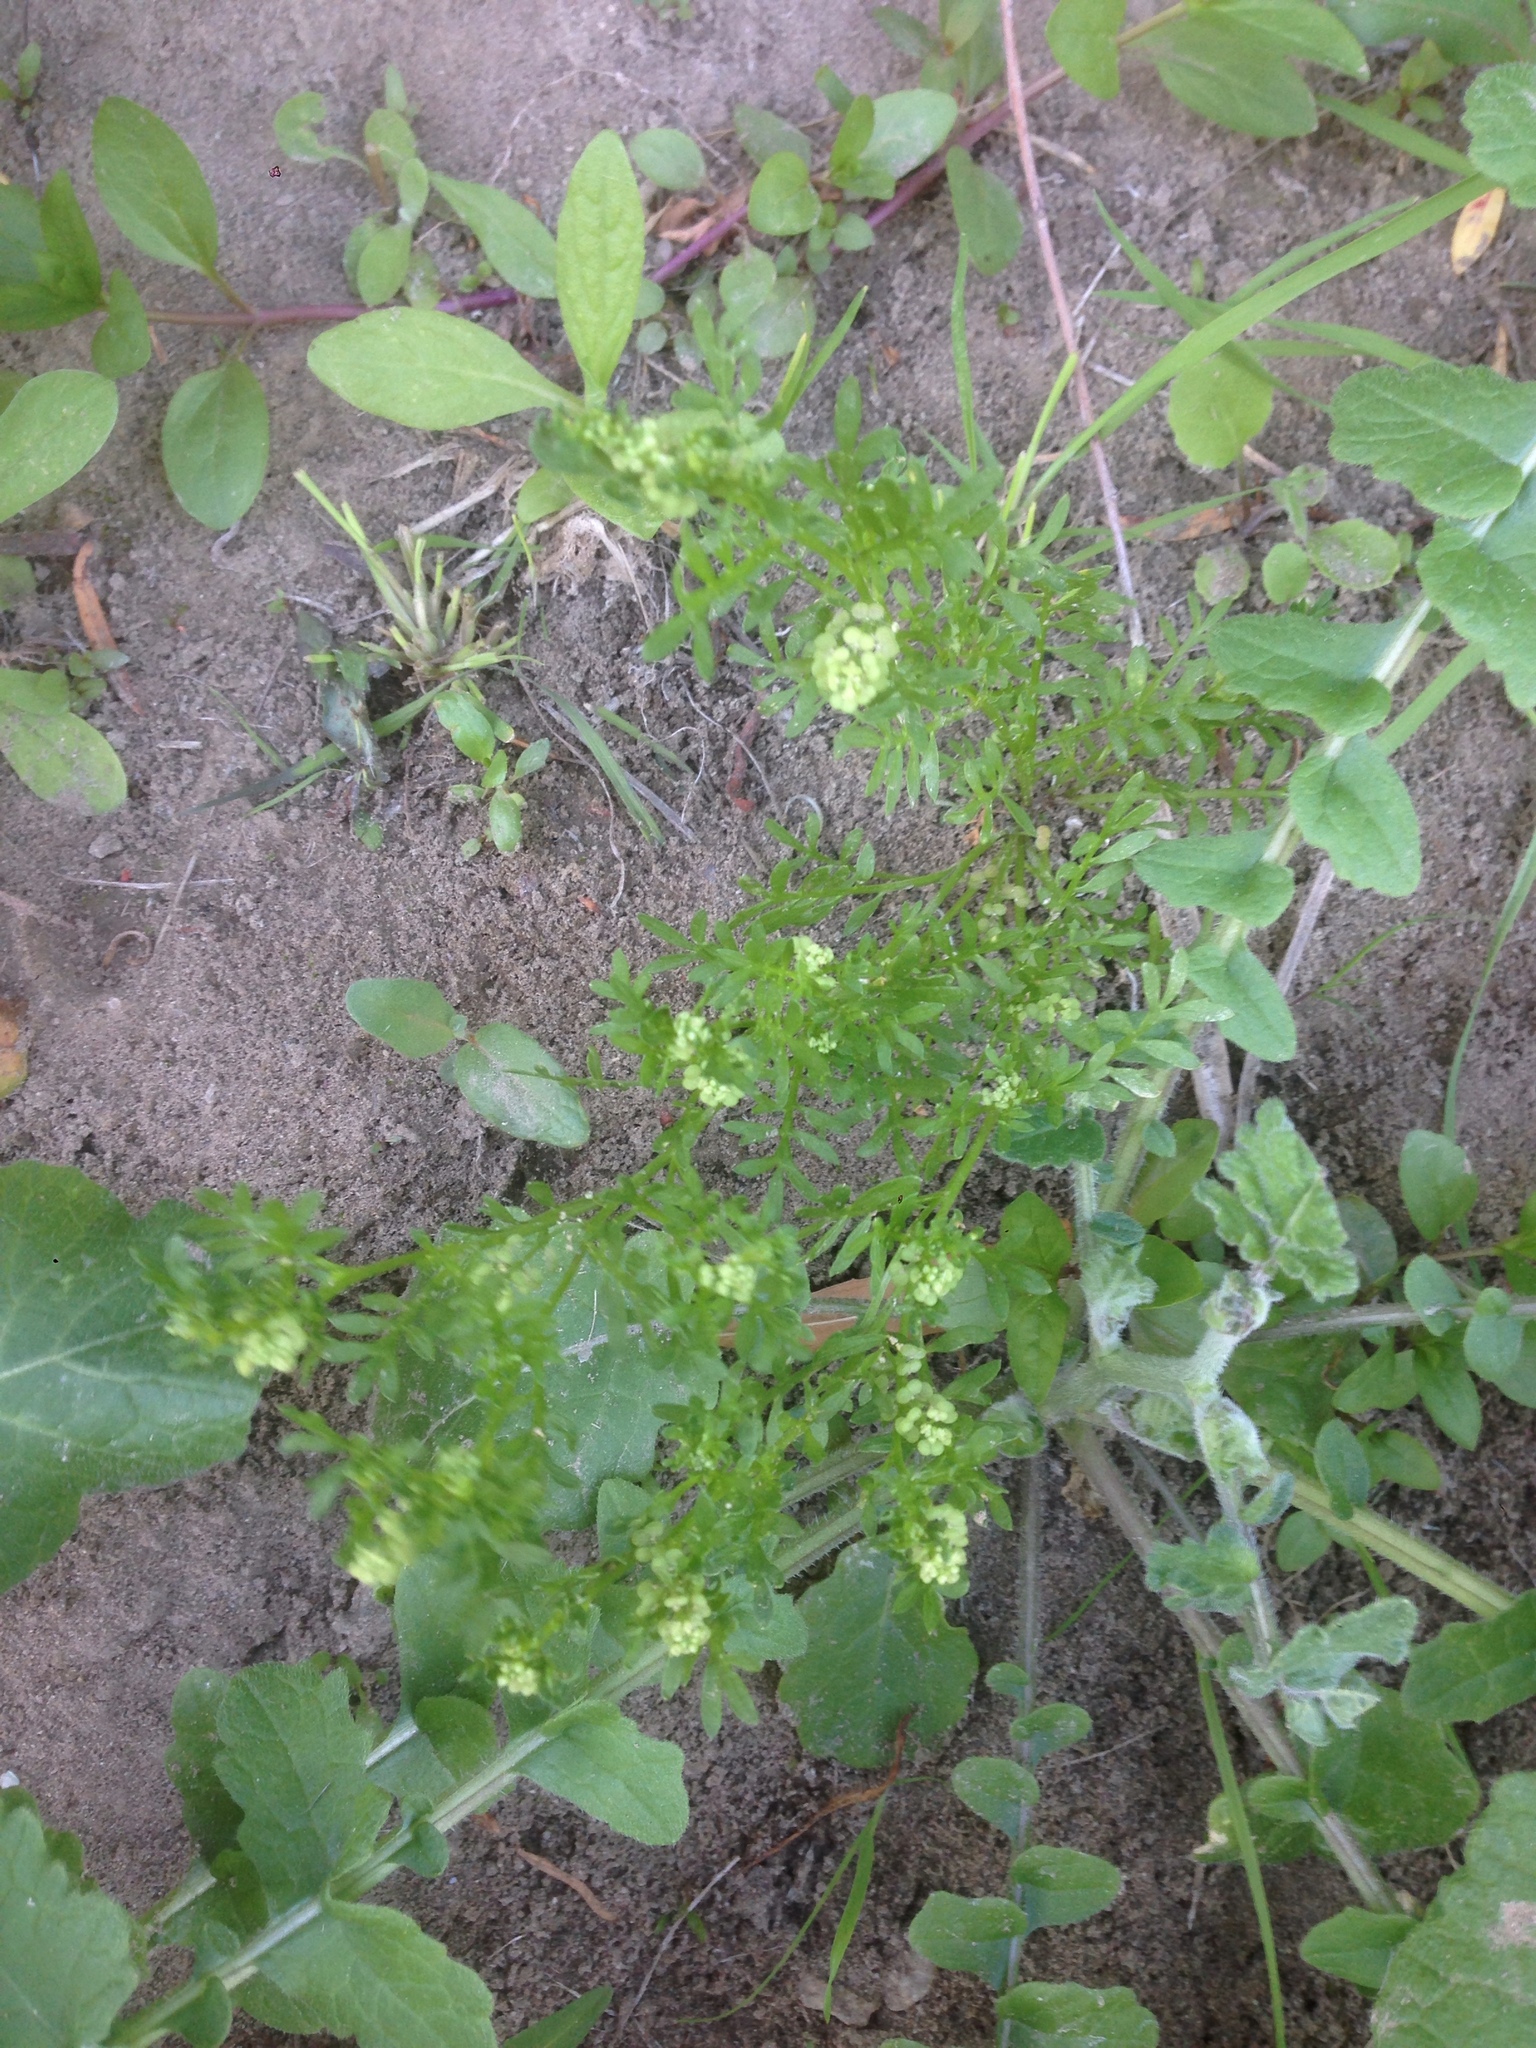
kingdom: Plantae
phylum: Tracheophyta
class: Magnoliopsida
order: Brassicales
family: Brassicaceae
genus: Lepidium
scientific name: Lepidium didymum
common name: Lesser swinecress
